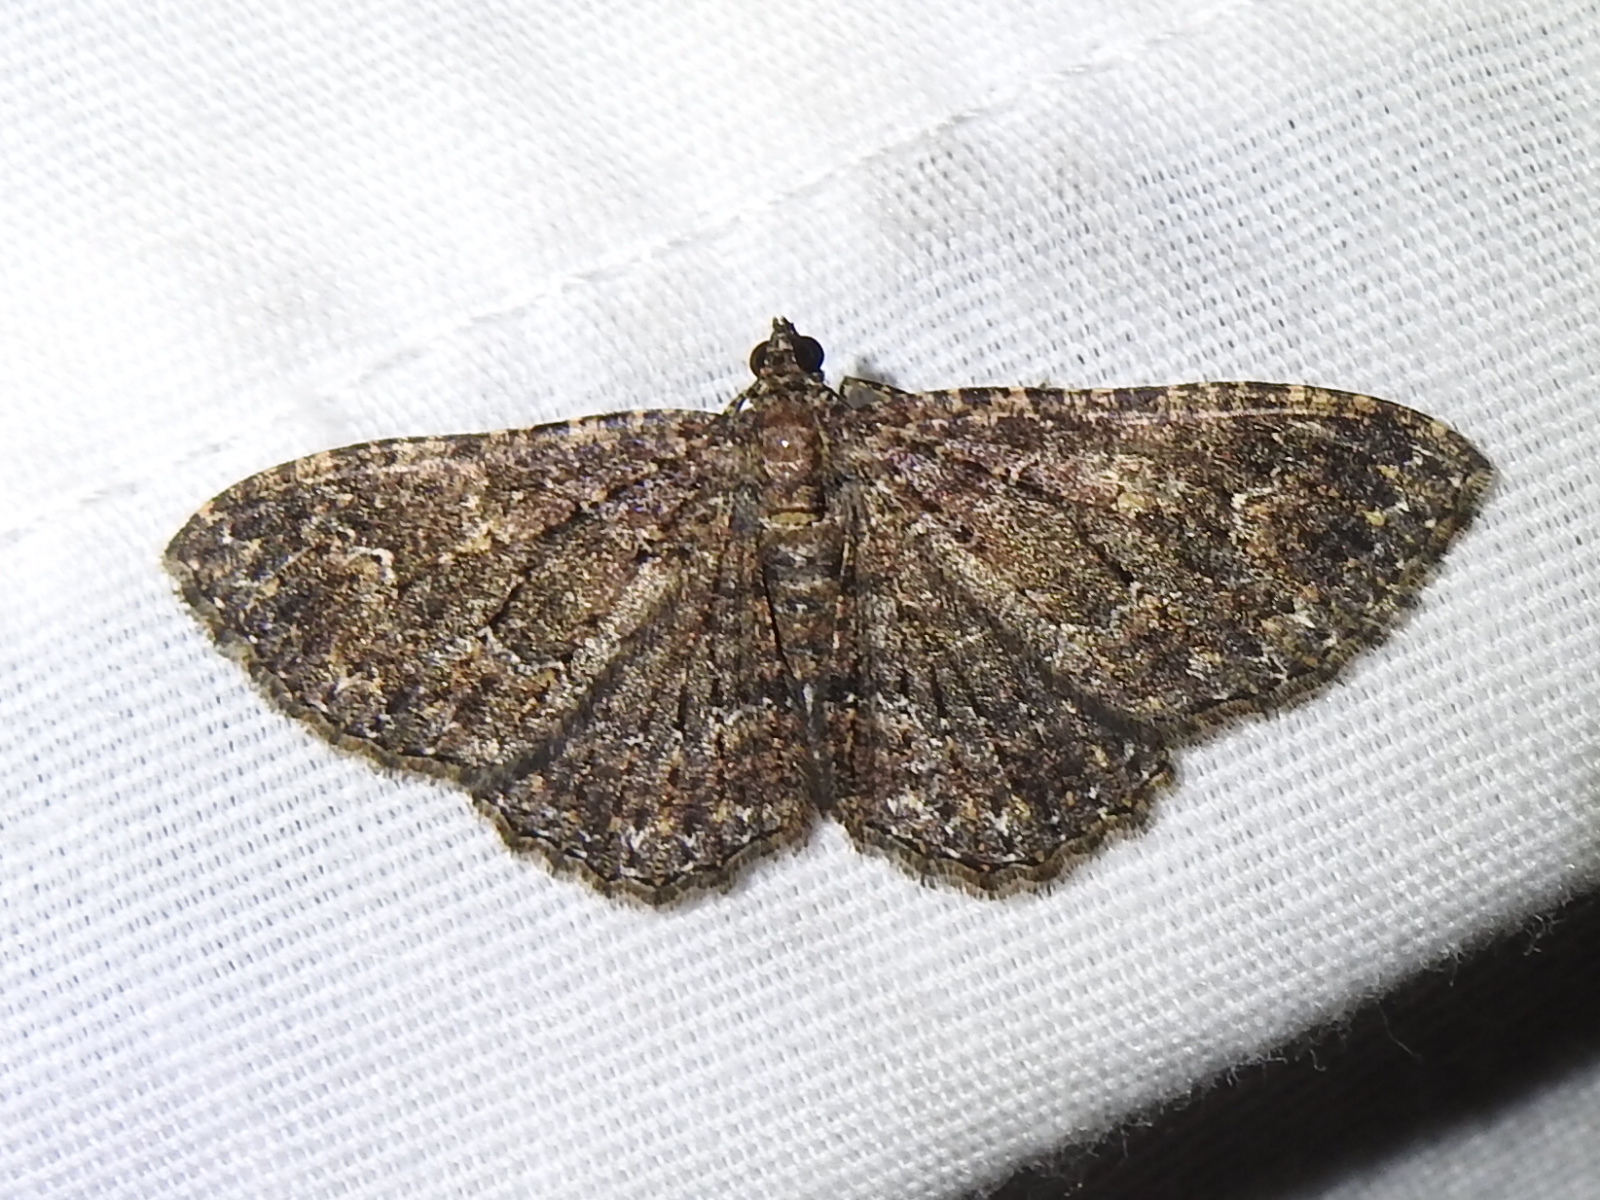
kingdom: Animalia
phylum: Arthropoda
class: Insecta
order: Lepidoptera
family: Geometridae
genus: Disclisioprocta
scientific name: Disclisioprocta stellata
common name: Somber carpet
